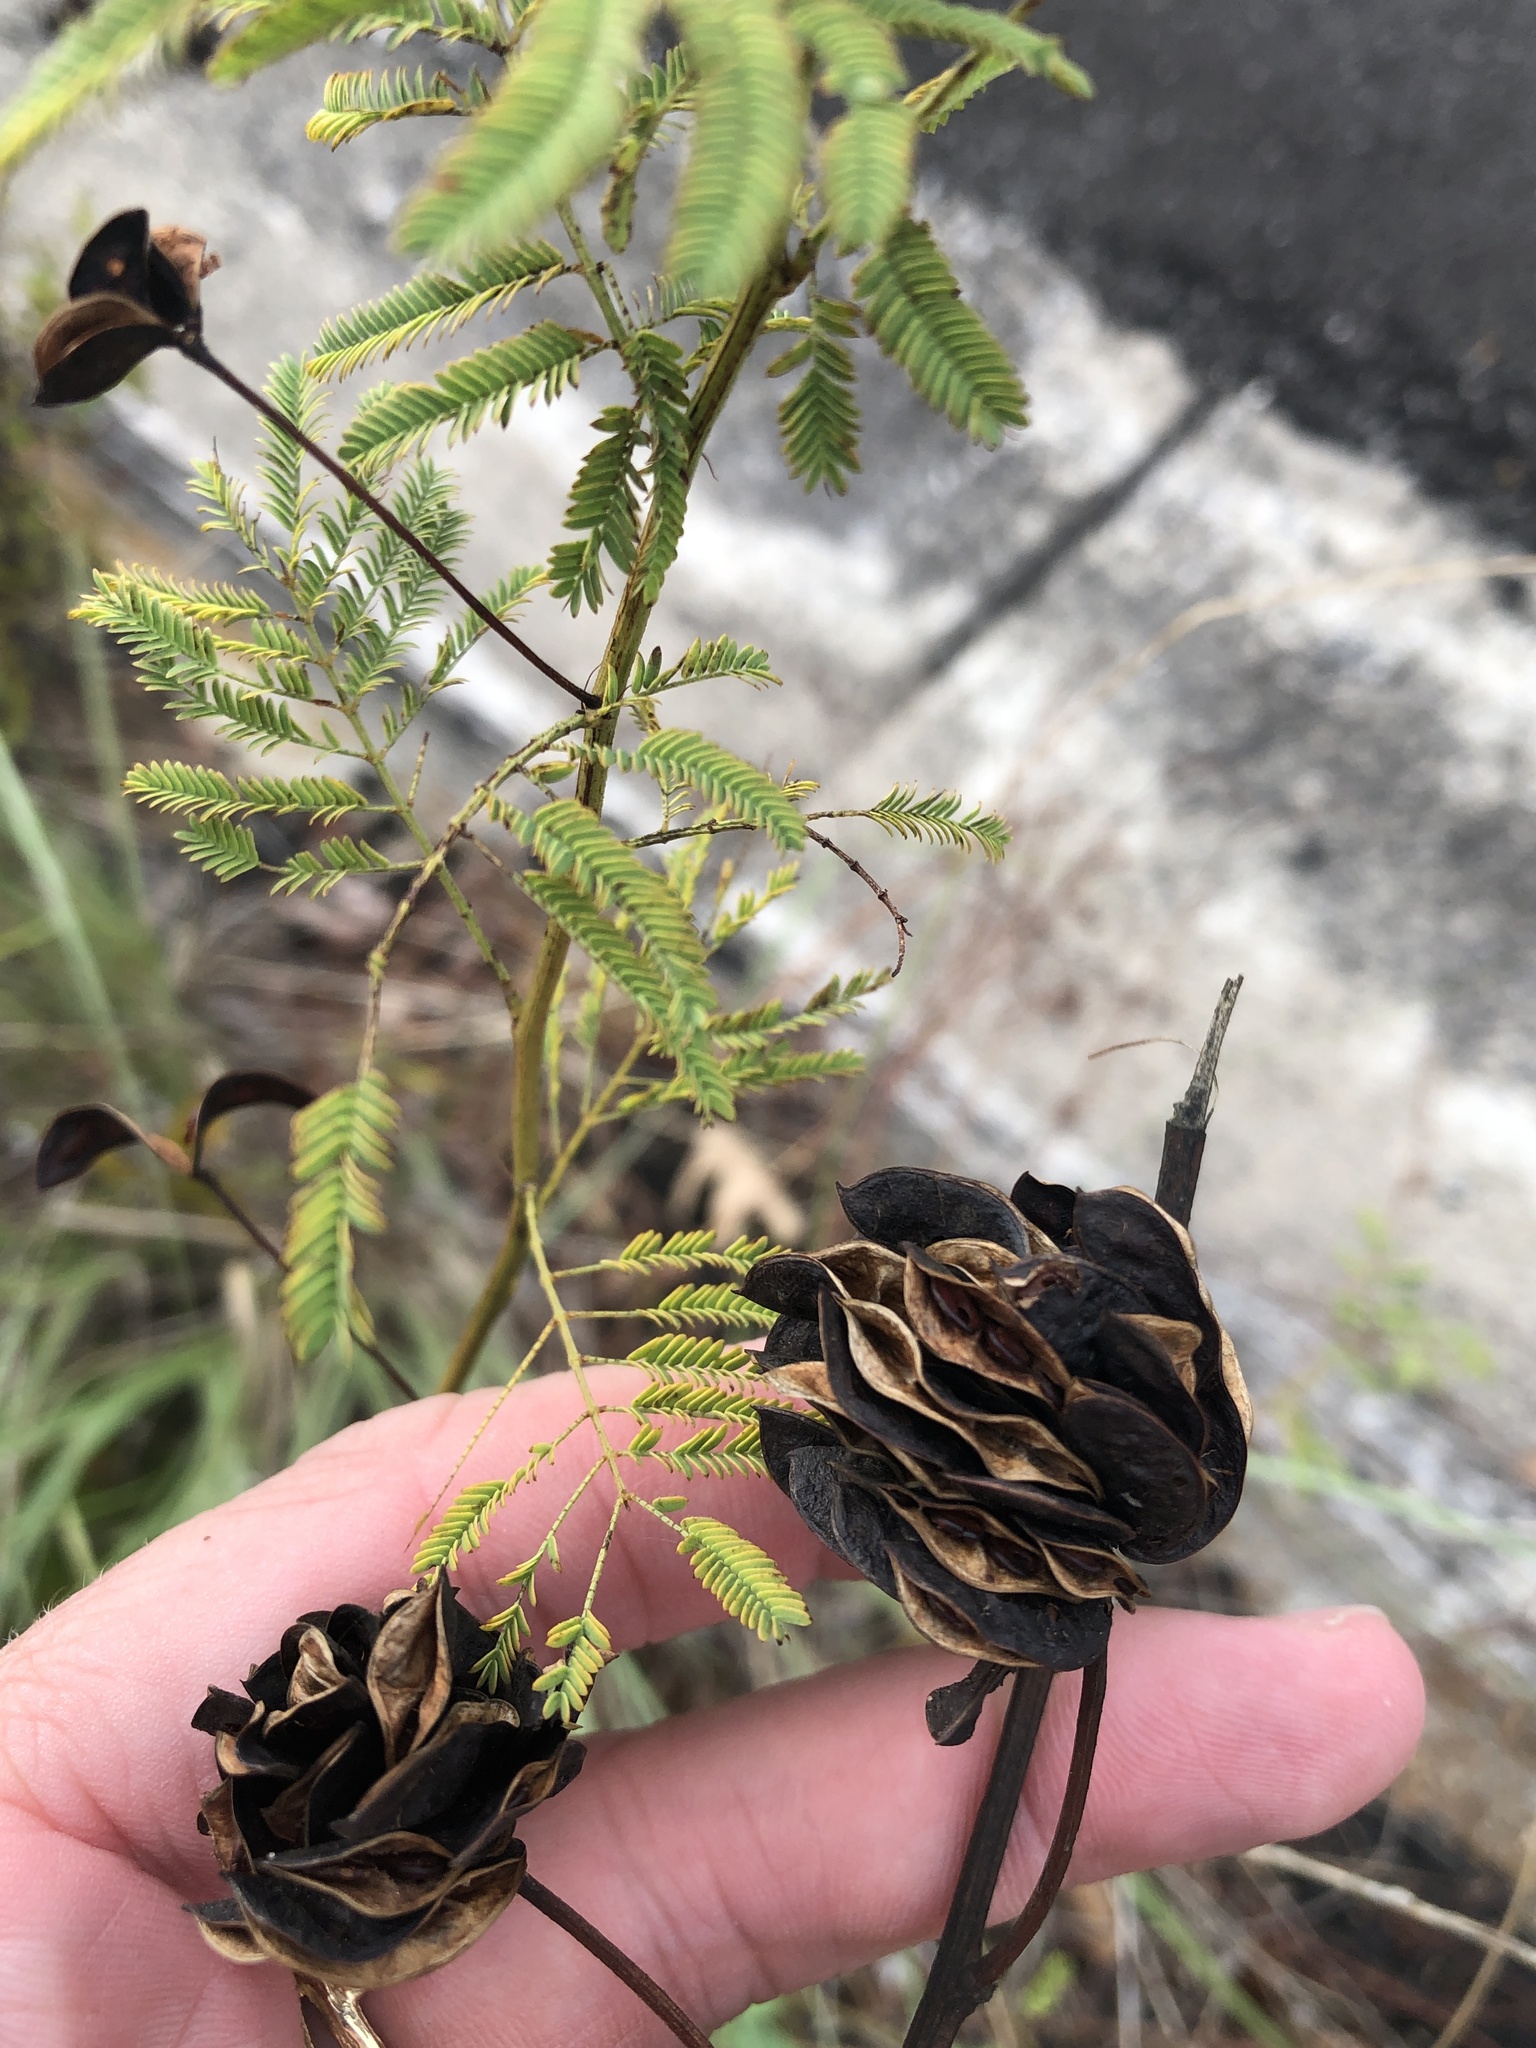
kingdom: Plantae
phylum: Tracheophyta
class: Magnoliopsida
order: Fabales
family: Fabaceae
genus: Desmanthus
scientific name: Desmanthus illinoensis
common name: Illinois bundle-flower
